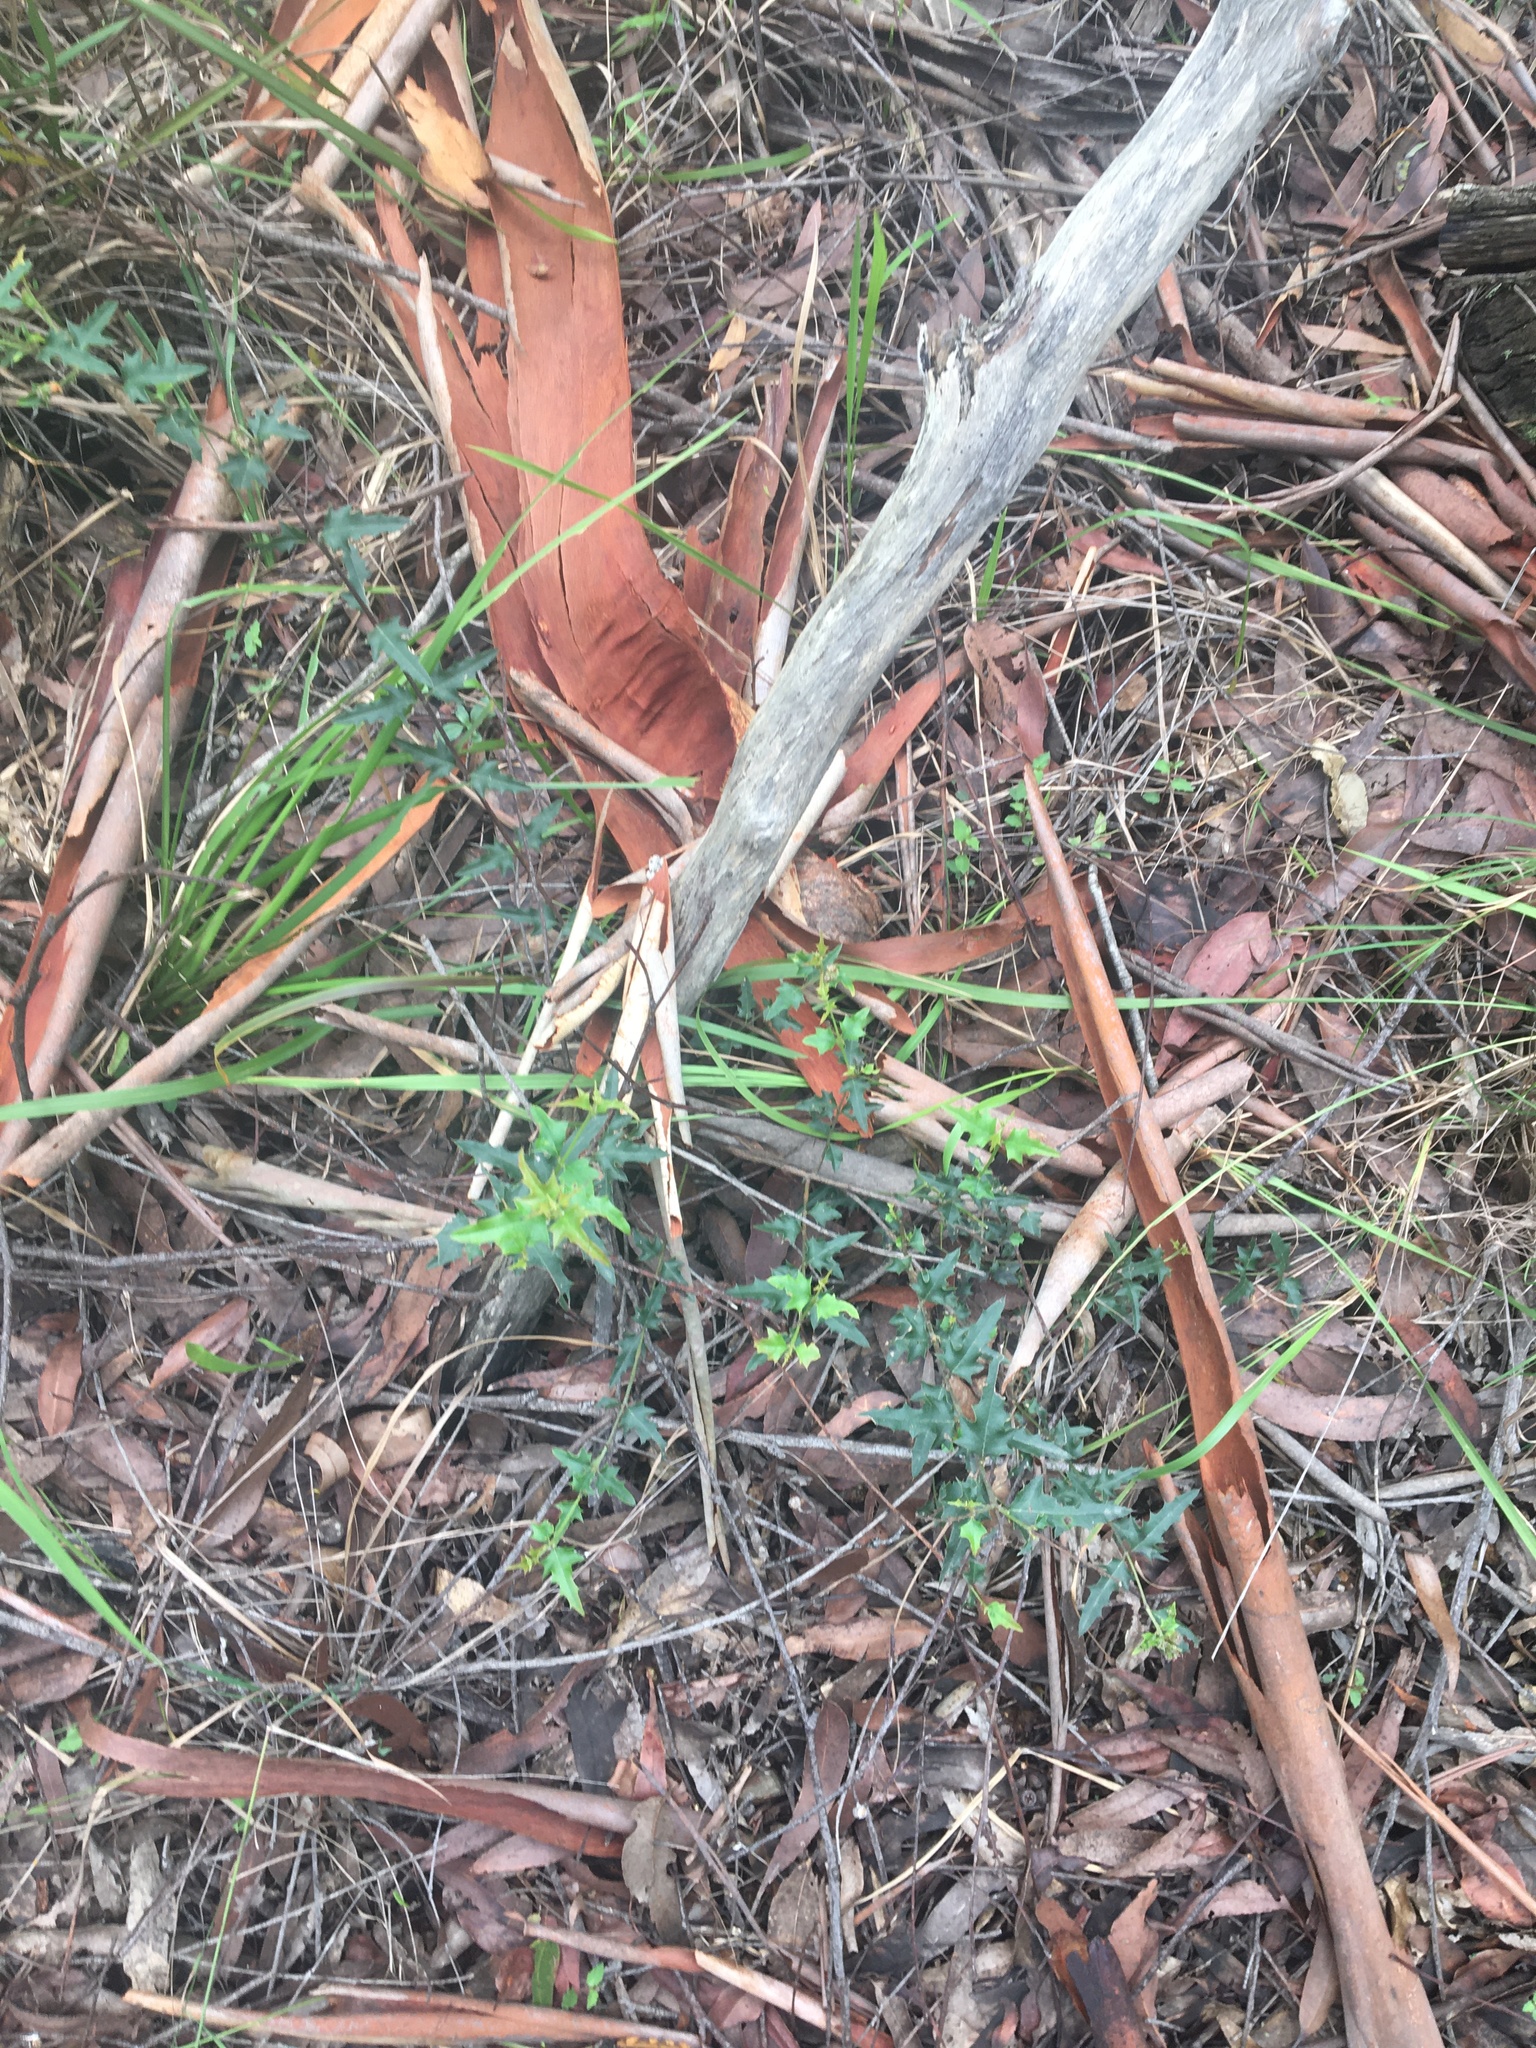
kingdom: Plantae
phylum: Tracheophyta
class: Magnoliopsida
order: Fabales
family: Fabaceae
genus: Podolobium
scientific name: Podolobium ilicifolium
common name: Native holly
